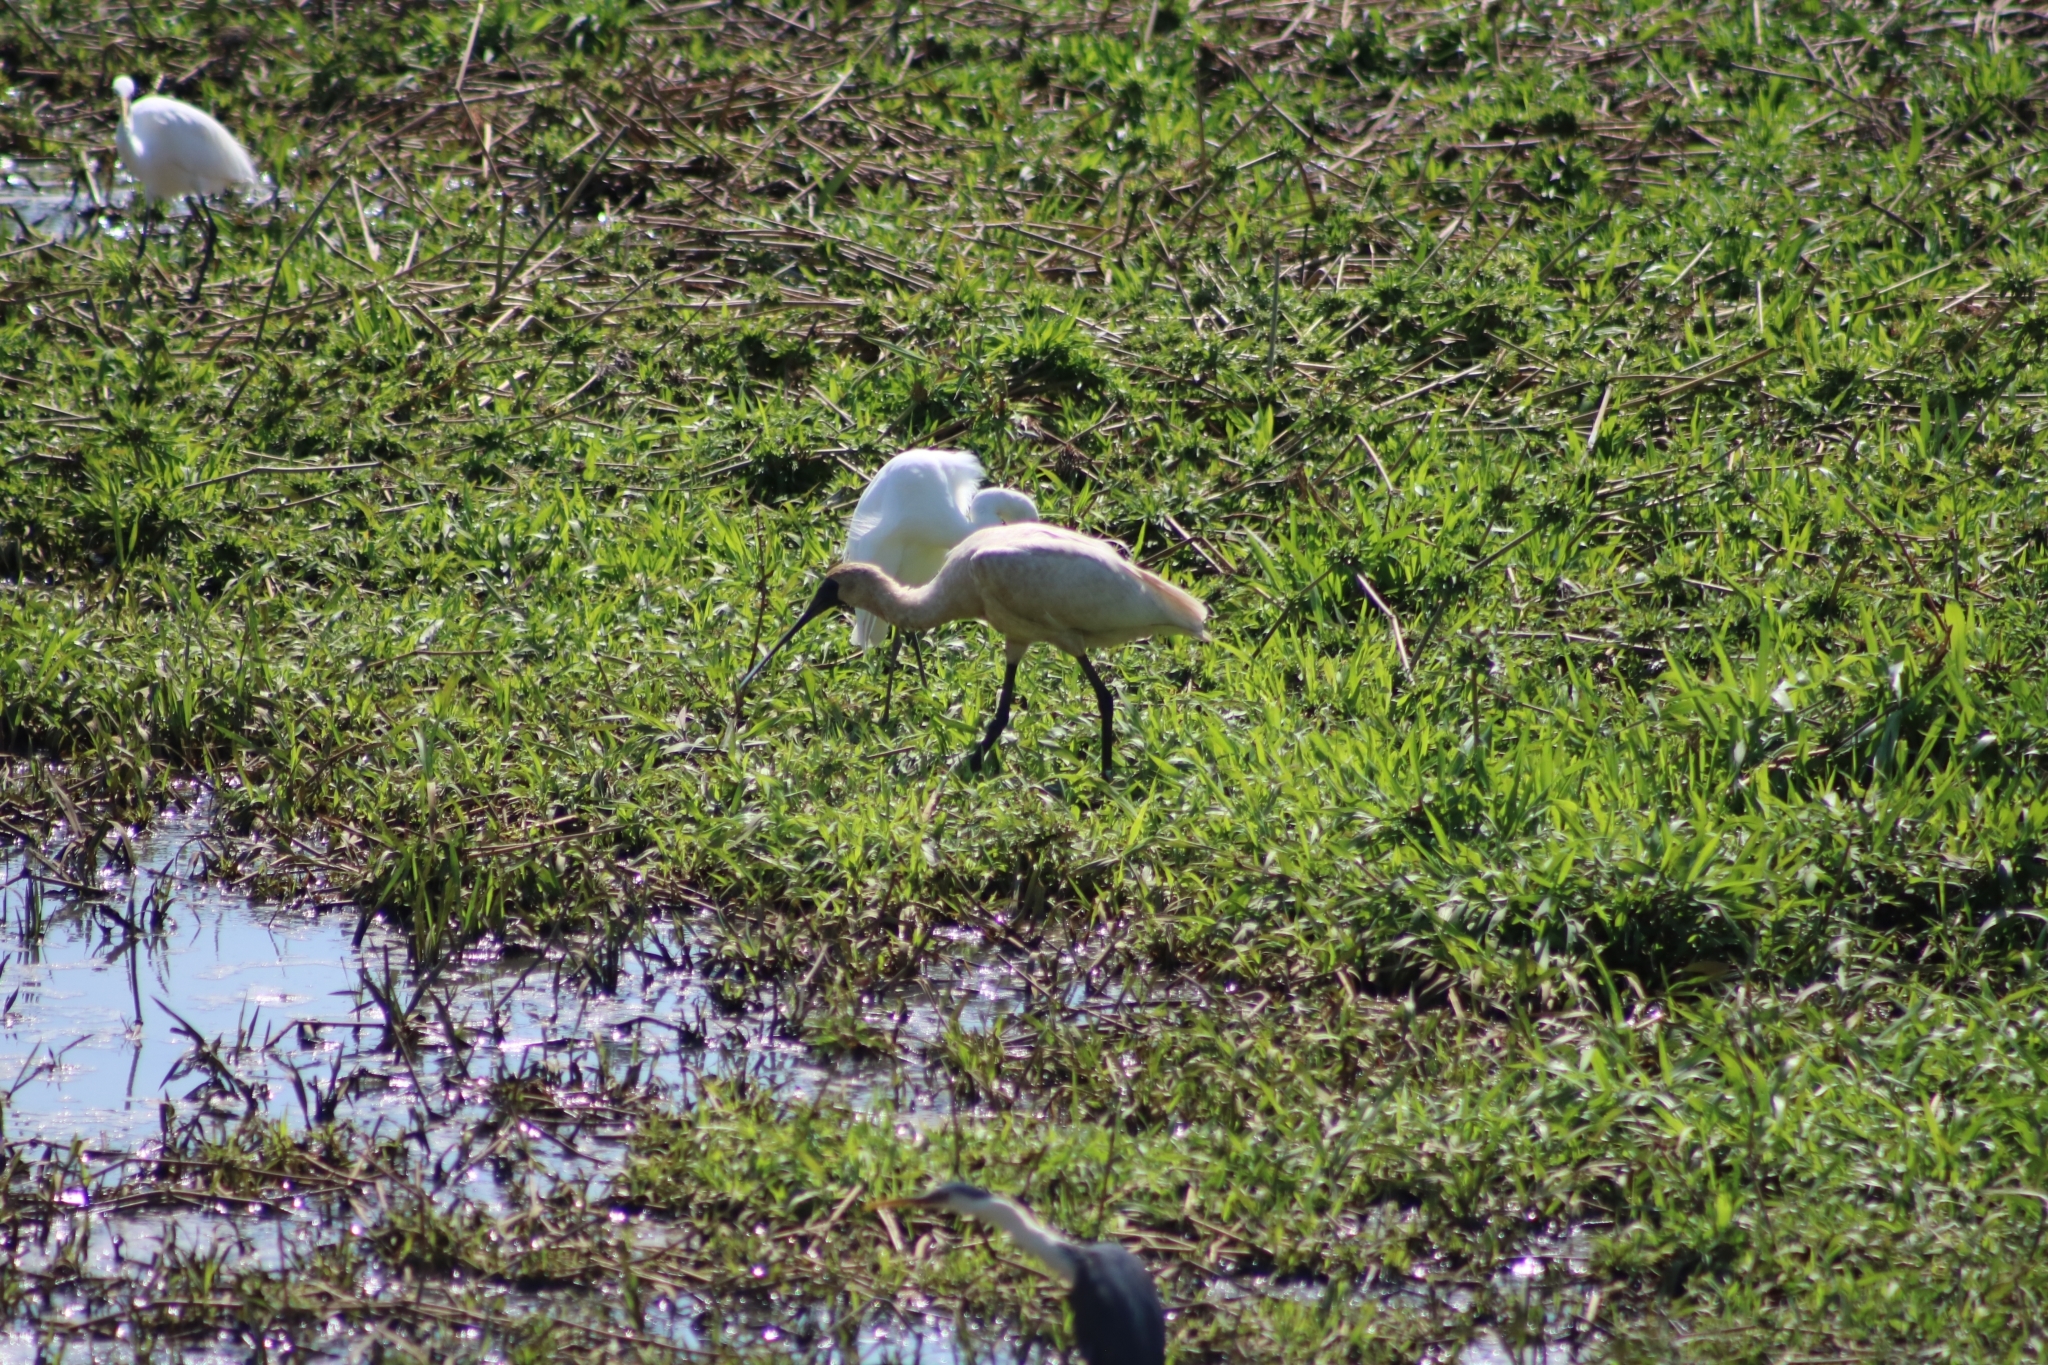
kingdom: Animalia
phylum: Chordata
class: Aves
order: Pelecaniformes
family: Threskiornithidae
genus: Platalea
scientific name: Platalea regia
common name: Royal spoonbill
